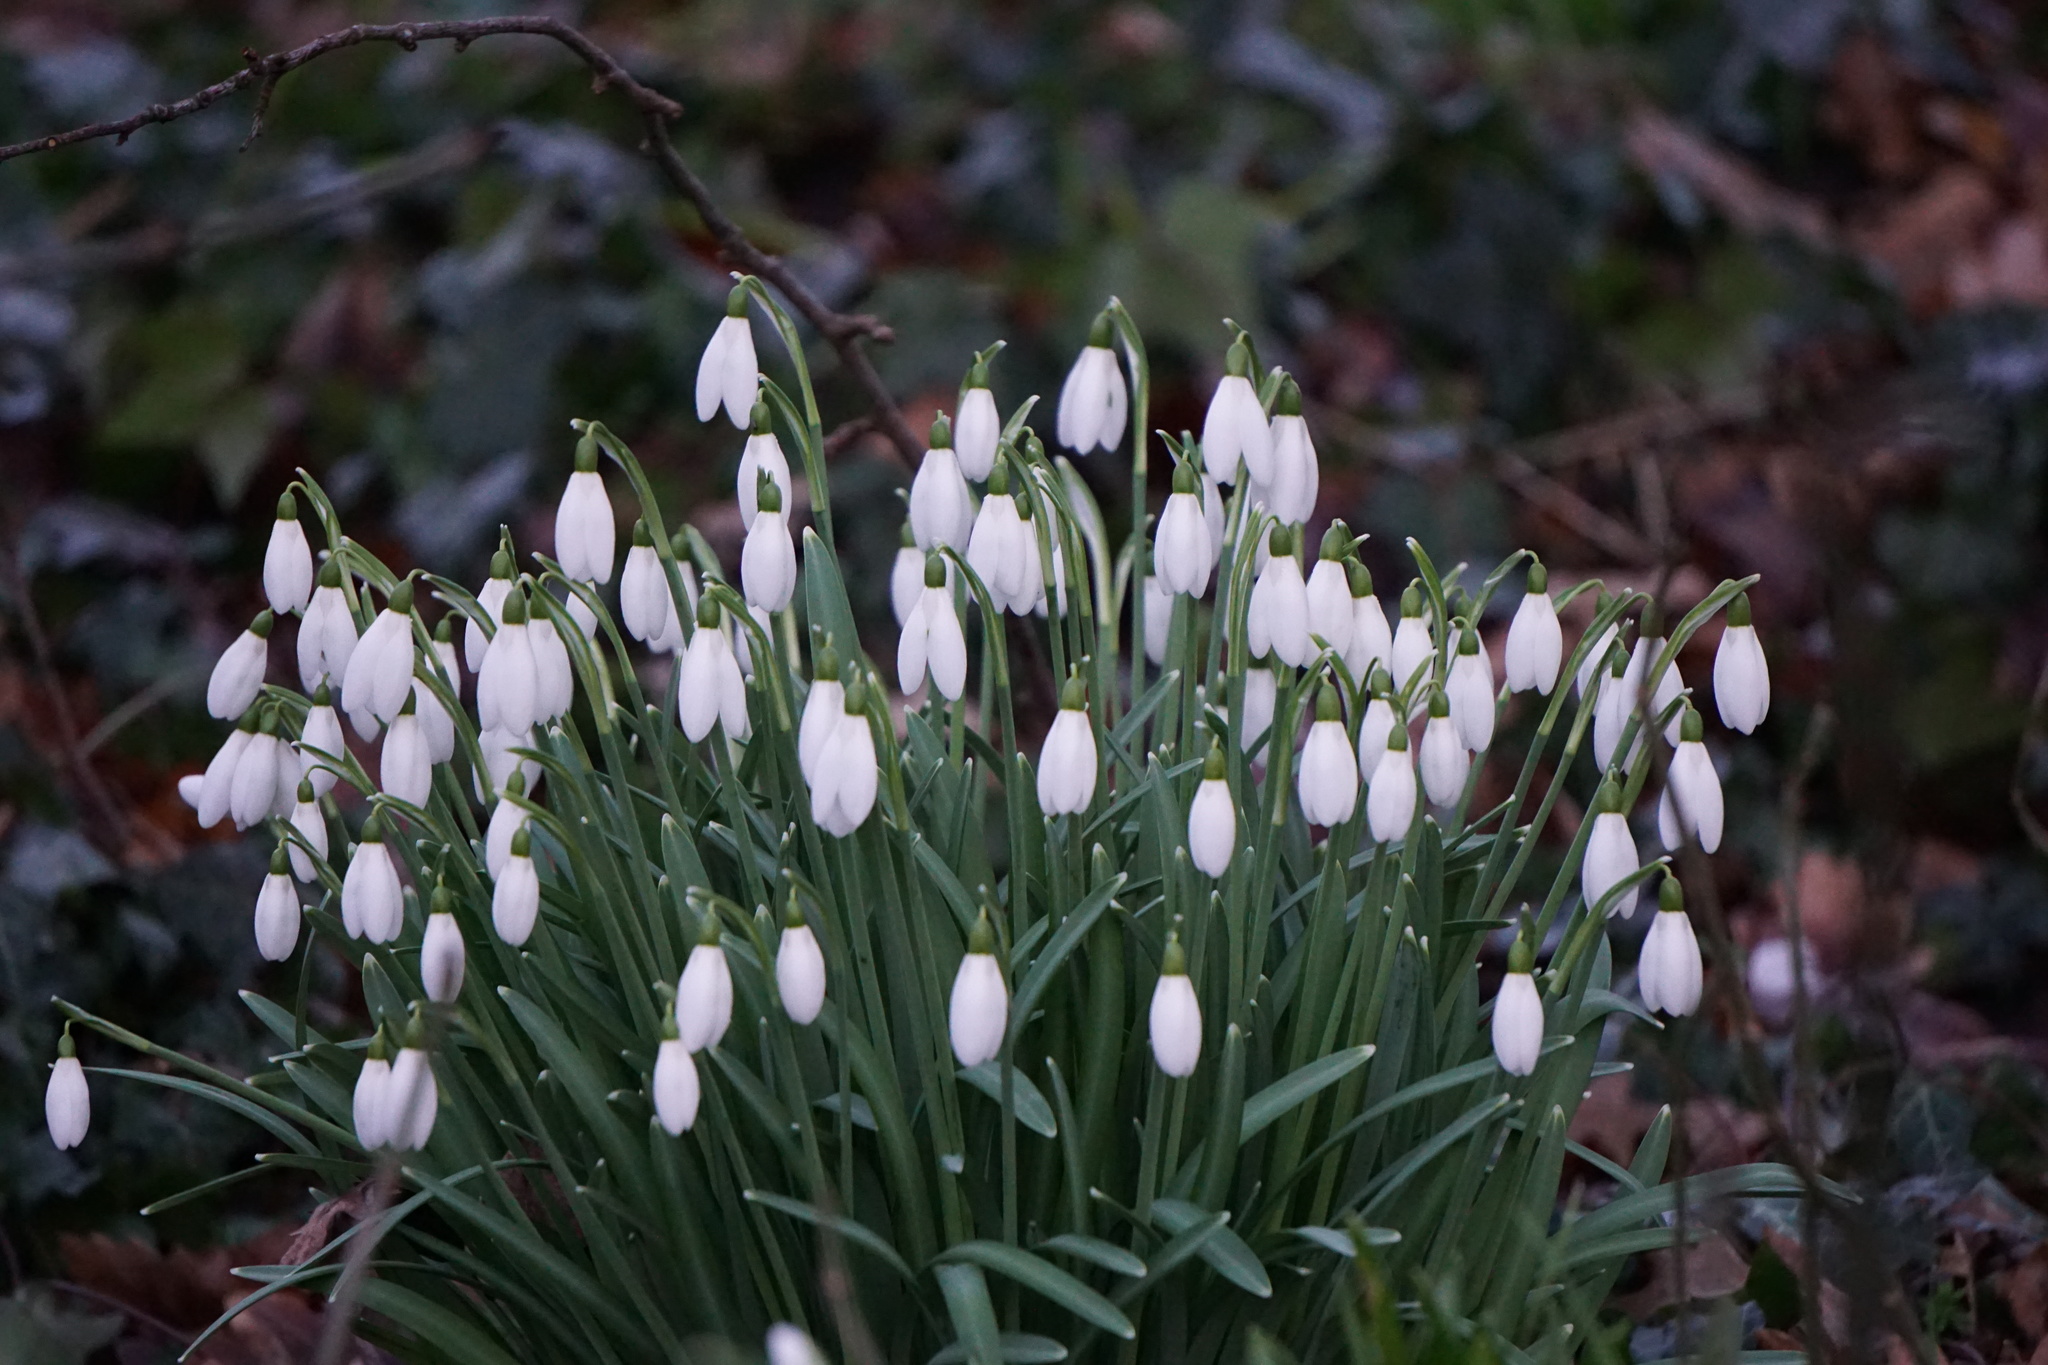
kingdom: Plantae
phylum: Tracheophyta
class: Liliopsida
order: Asparagales
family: Amaryllidaceae
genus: Galanthus
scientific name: Galanthus nivalis
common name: Snowdrop
